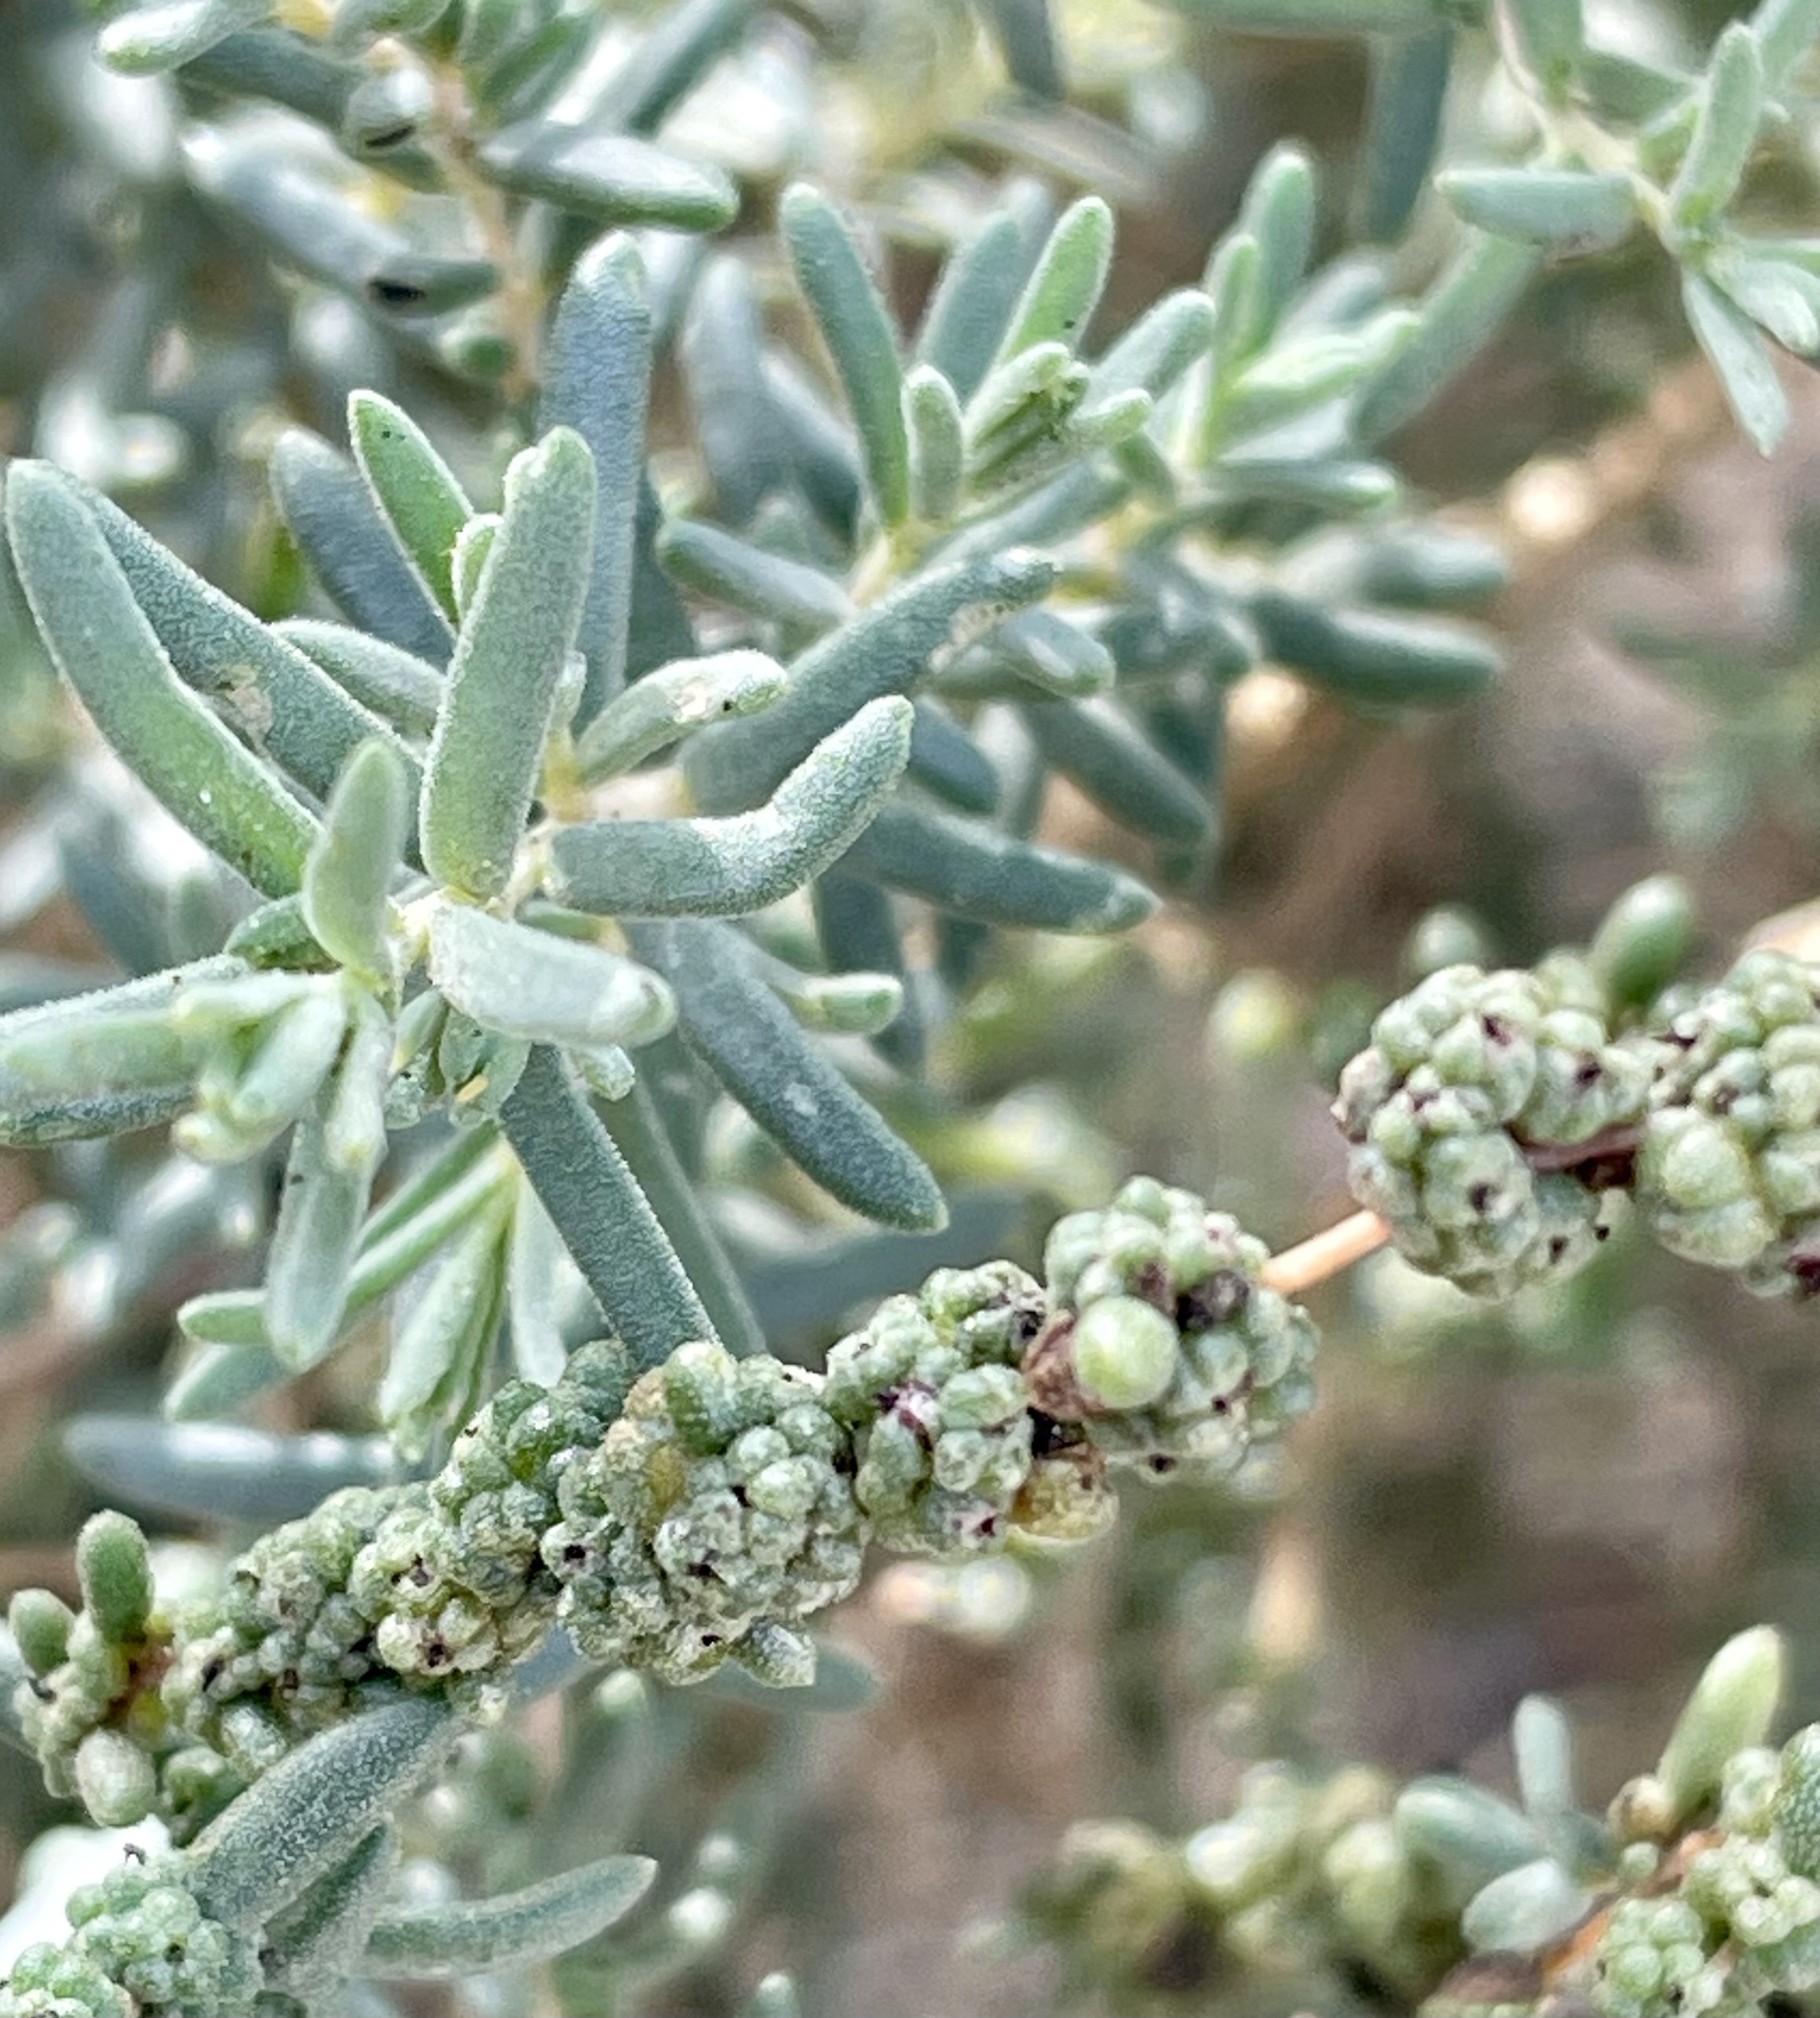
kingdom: Plantae
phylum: Tracheophyta
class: Magnoliopsida
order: Caryophyllales
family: Amaranthaceae
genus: Suaeda
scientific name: Suaeda nigra
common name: Bush seepweed
